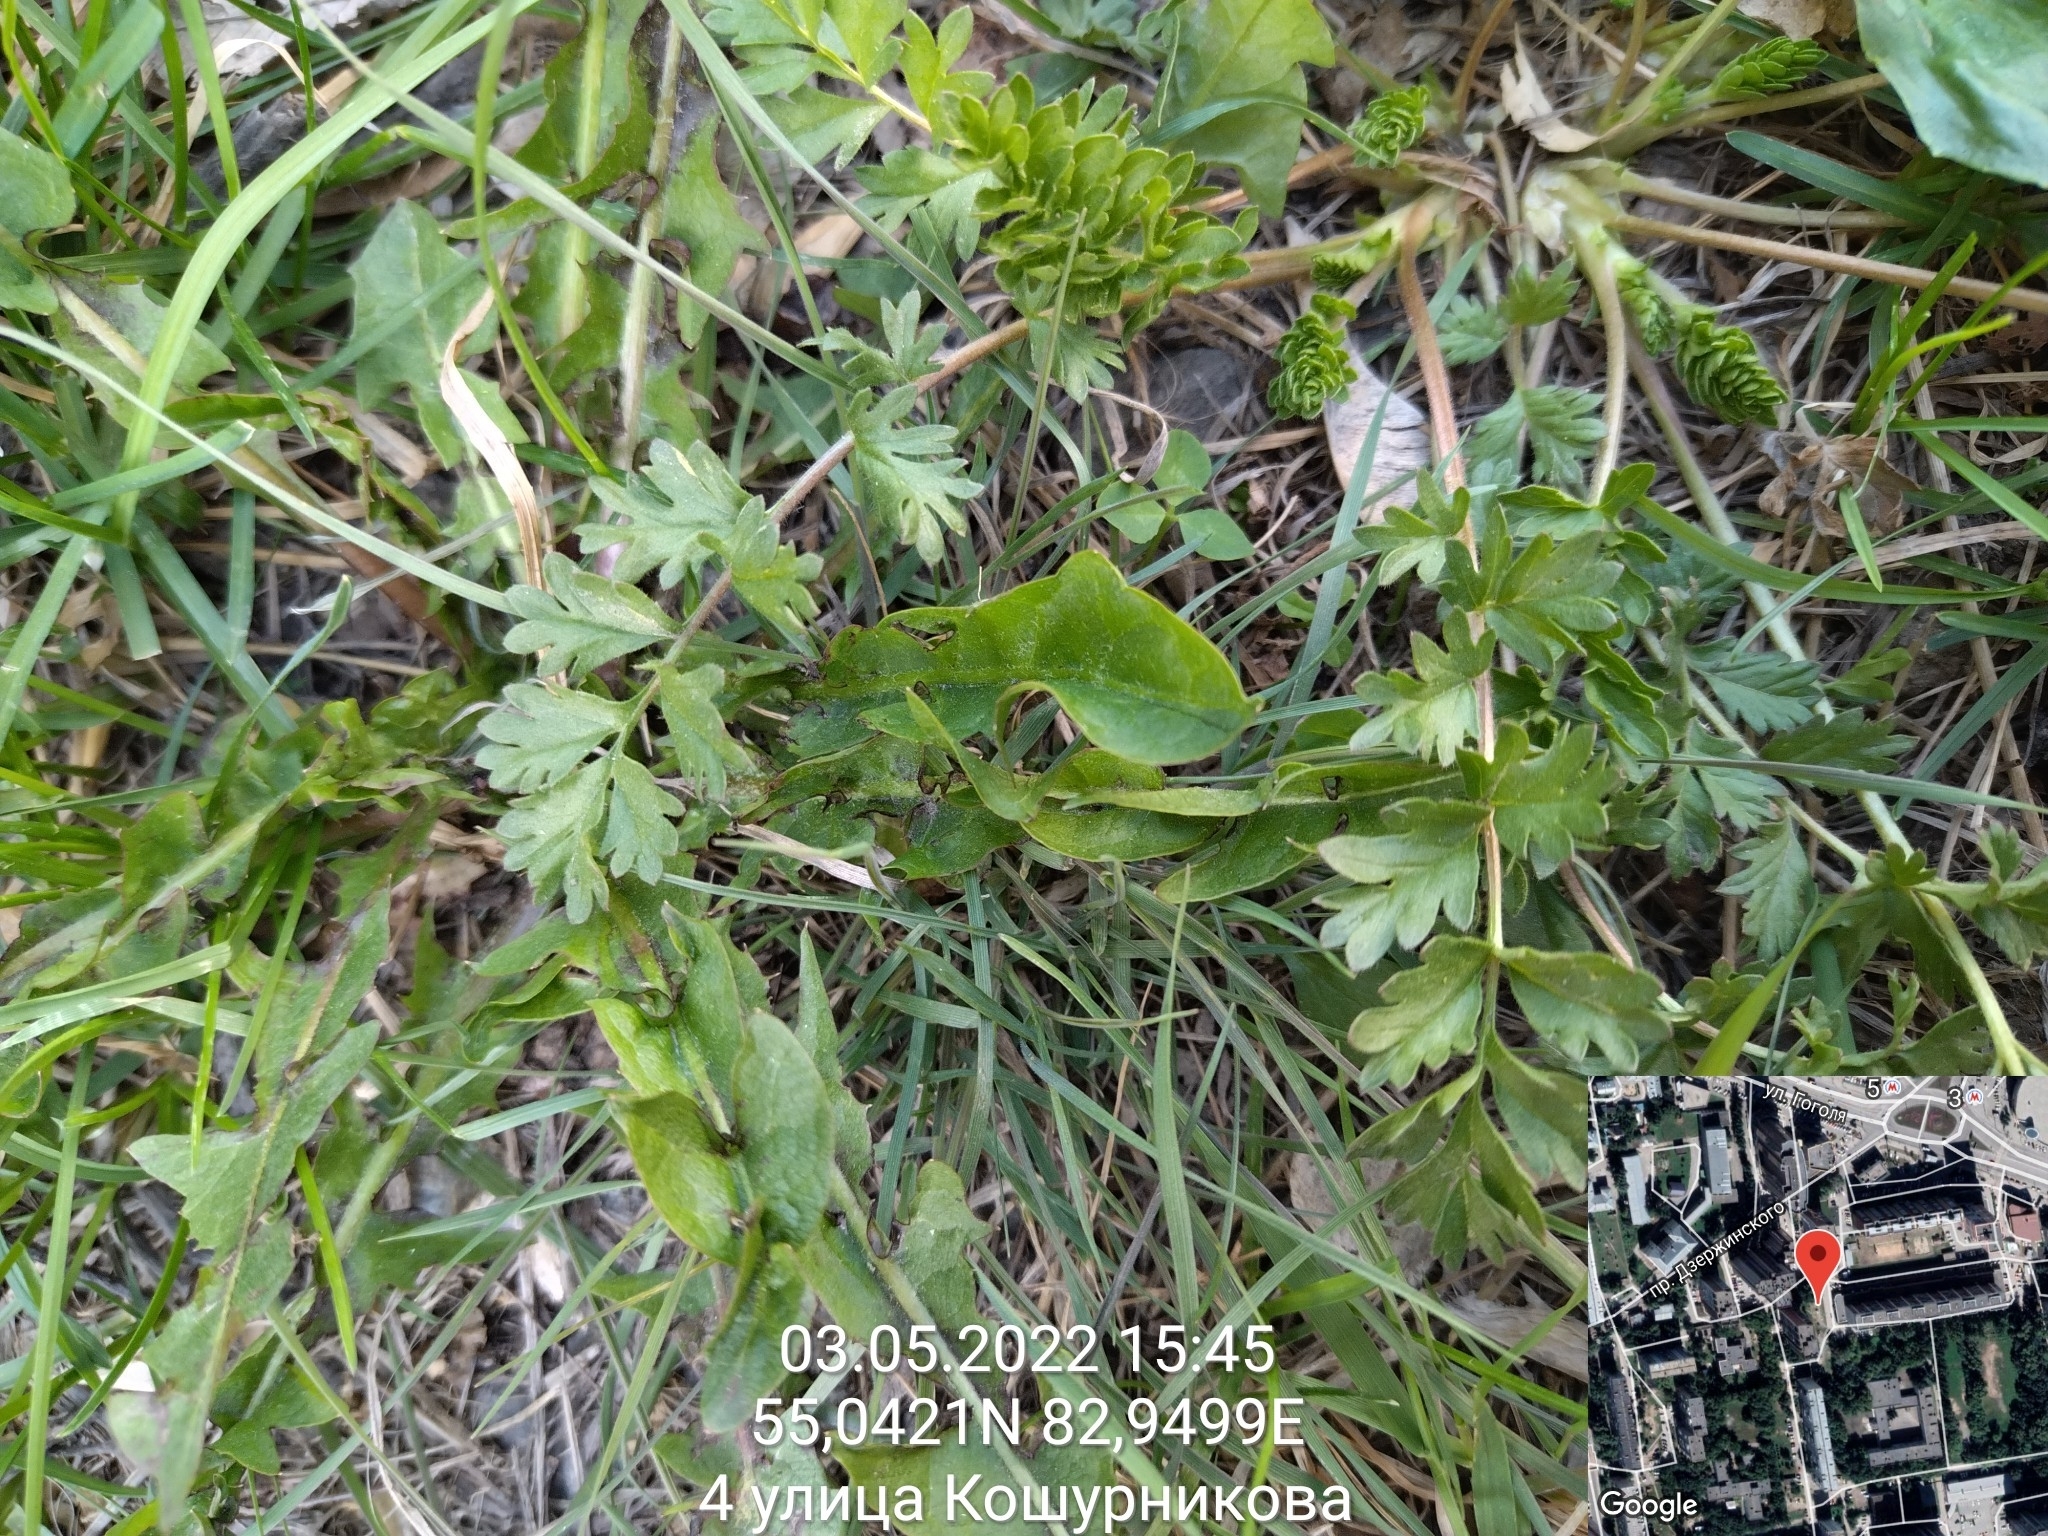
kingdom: Plantae
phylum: Tracheophyta
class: Magnoliopsida
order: Rosales
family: Rosaceae
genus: Potentilla
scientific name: Potentilla supina
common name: Prostrate cinquefoil
